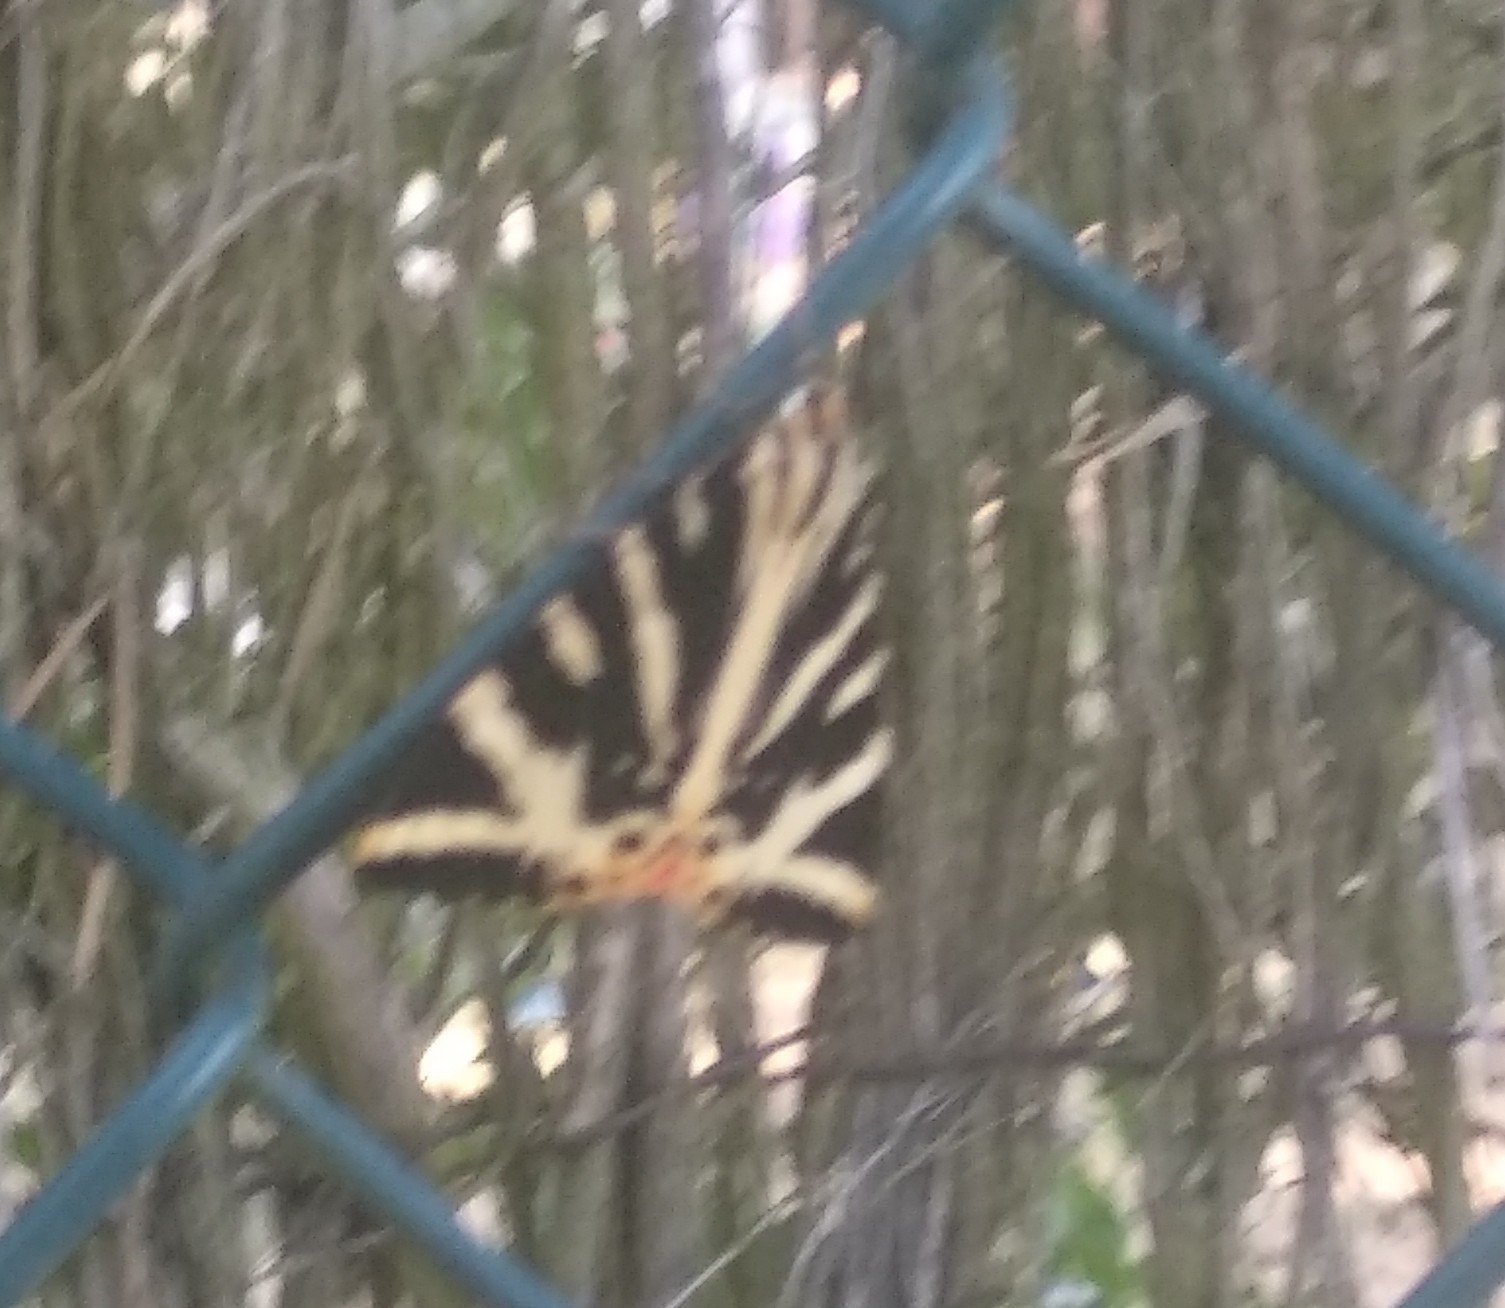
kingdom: Animalia
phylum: Arthropoda
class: Insecta
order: Lepidoptera
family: Erebidae
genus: Euplagia
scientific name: Euplagia quadripunctaria
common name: Jersey tiger
